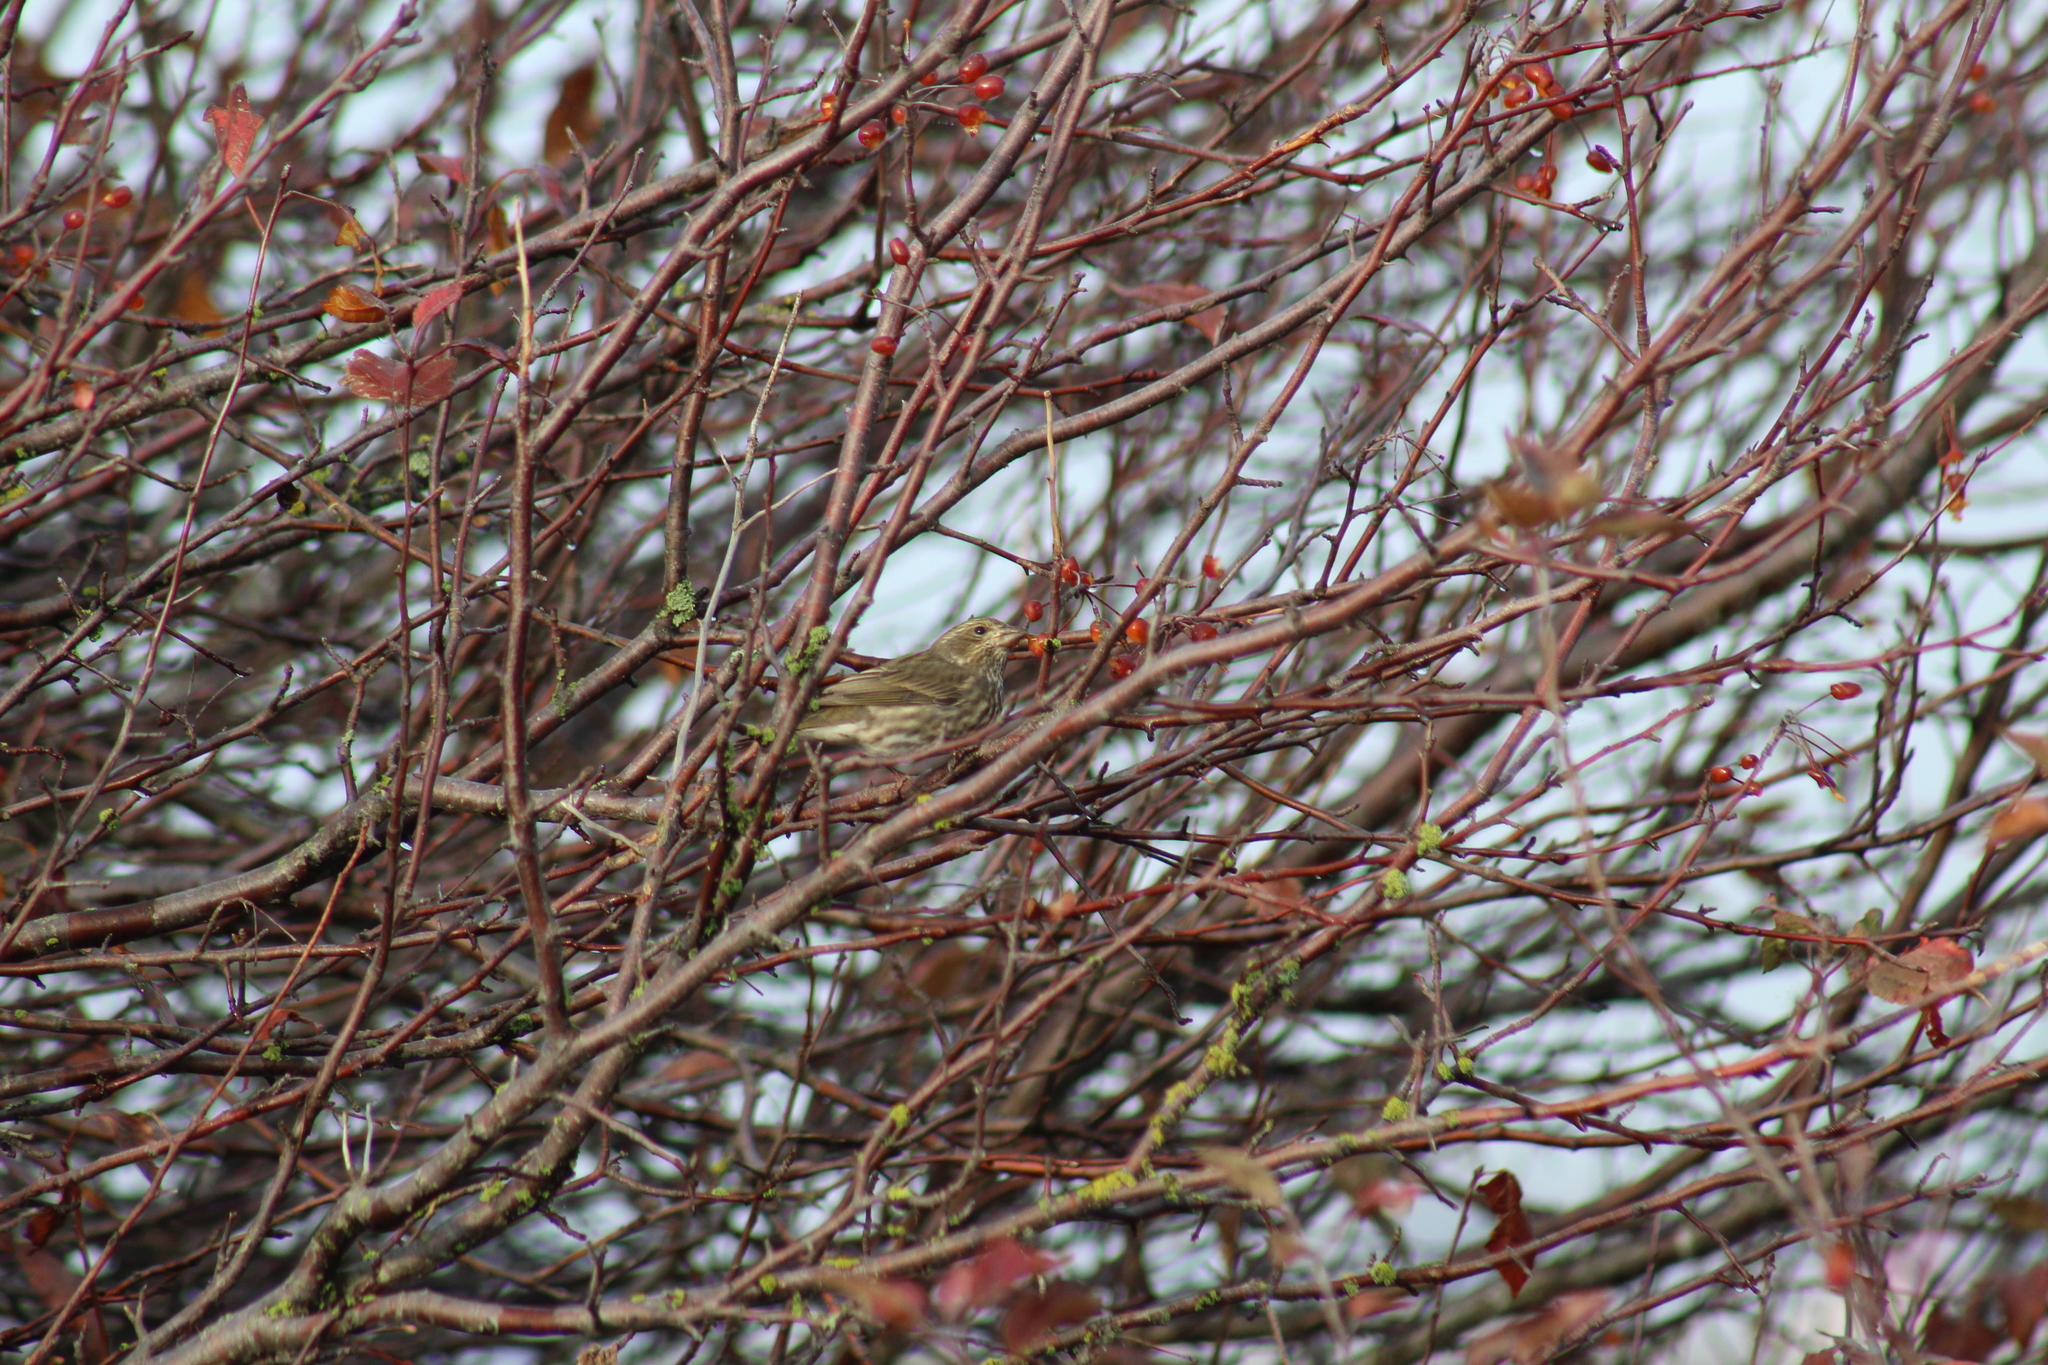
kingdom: Animalia
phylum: Chordata
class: Aves
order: Passeriformes
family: Fringillidae
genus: Haemorhous
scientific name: Haemorhous purpureus
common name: Purple finch
